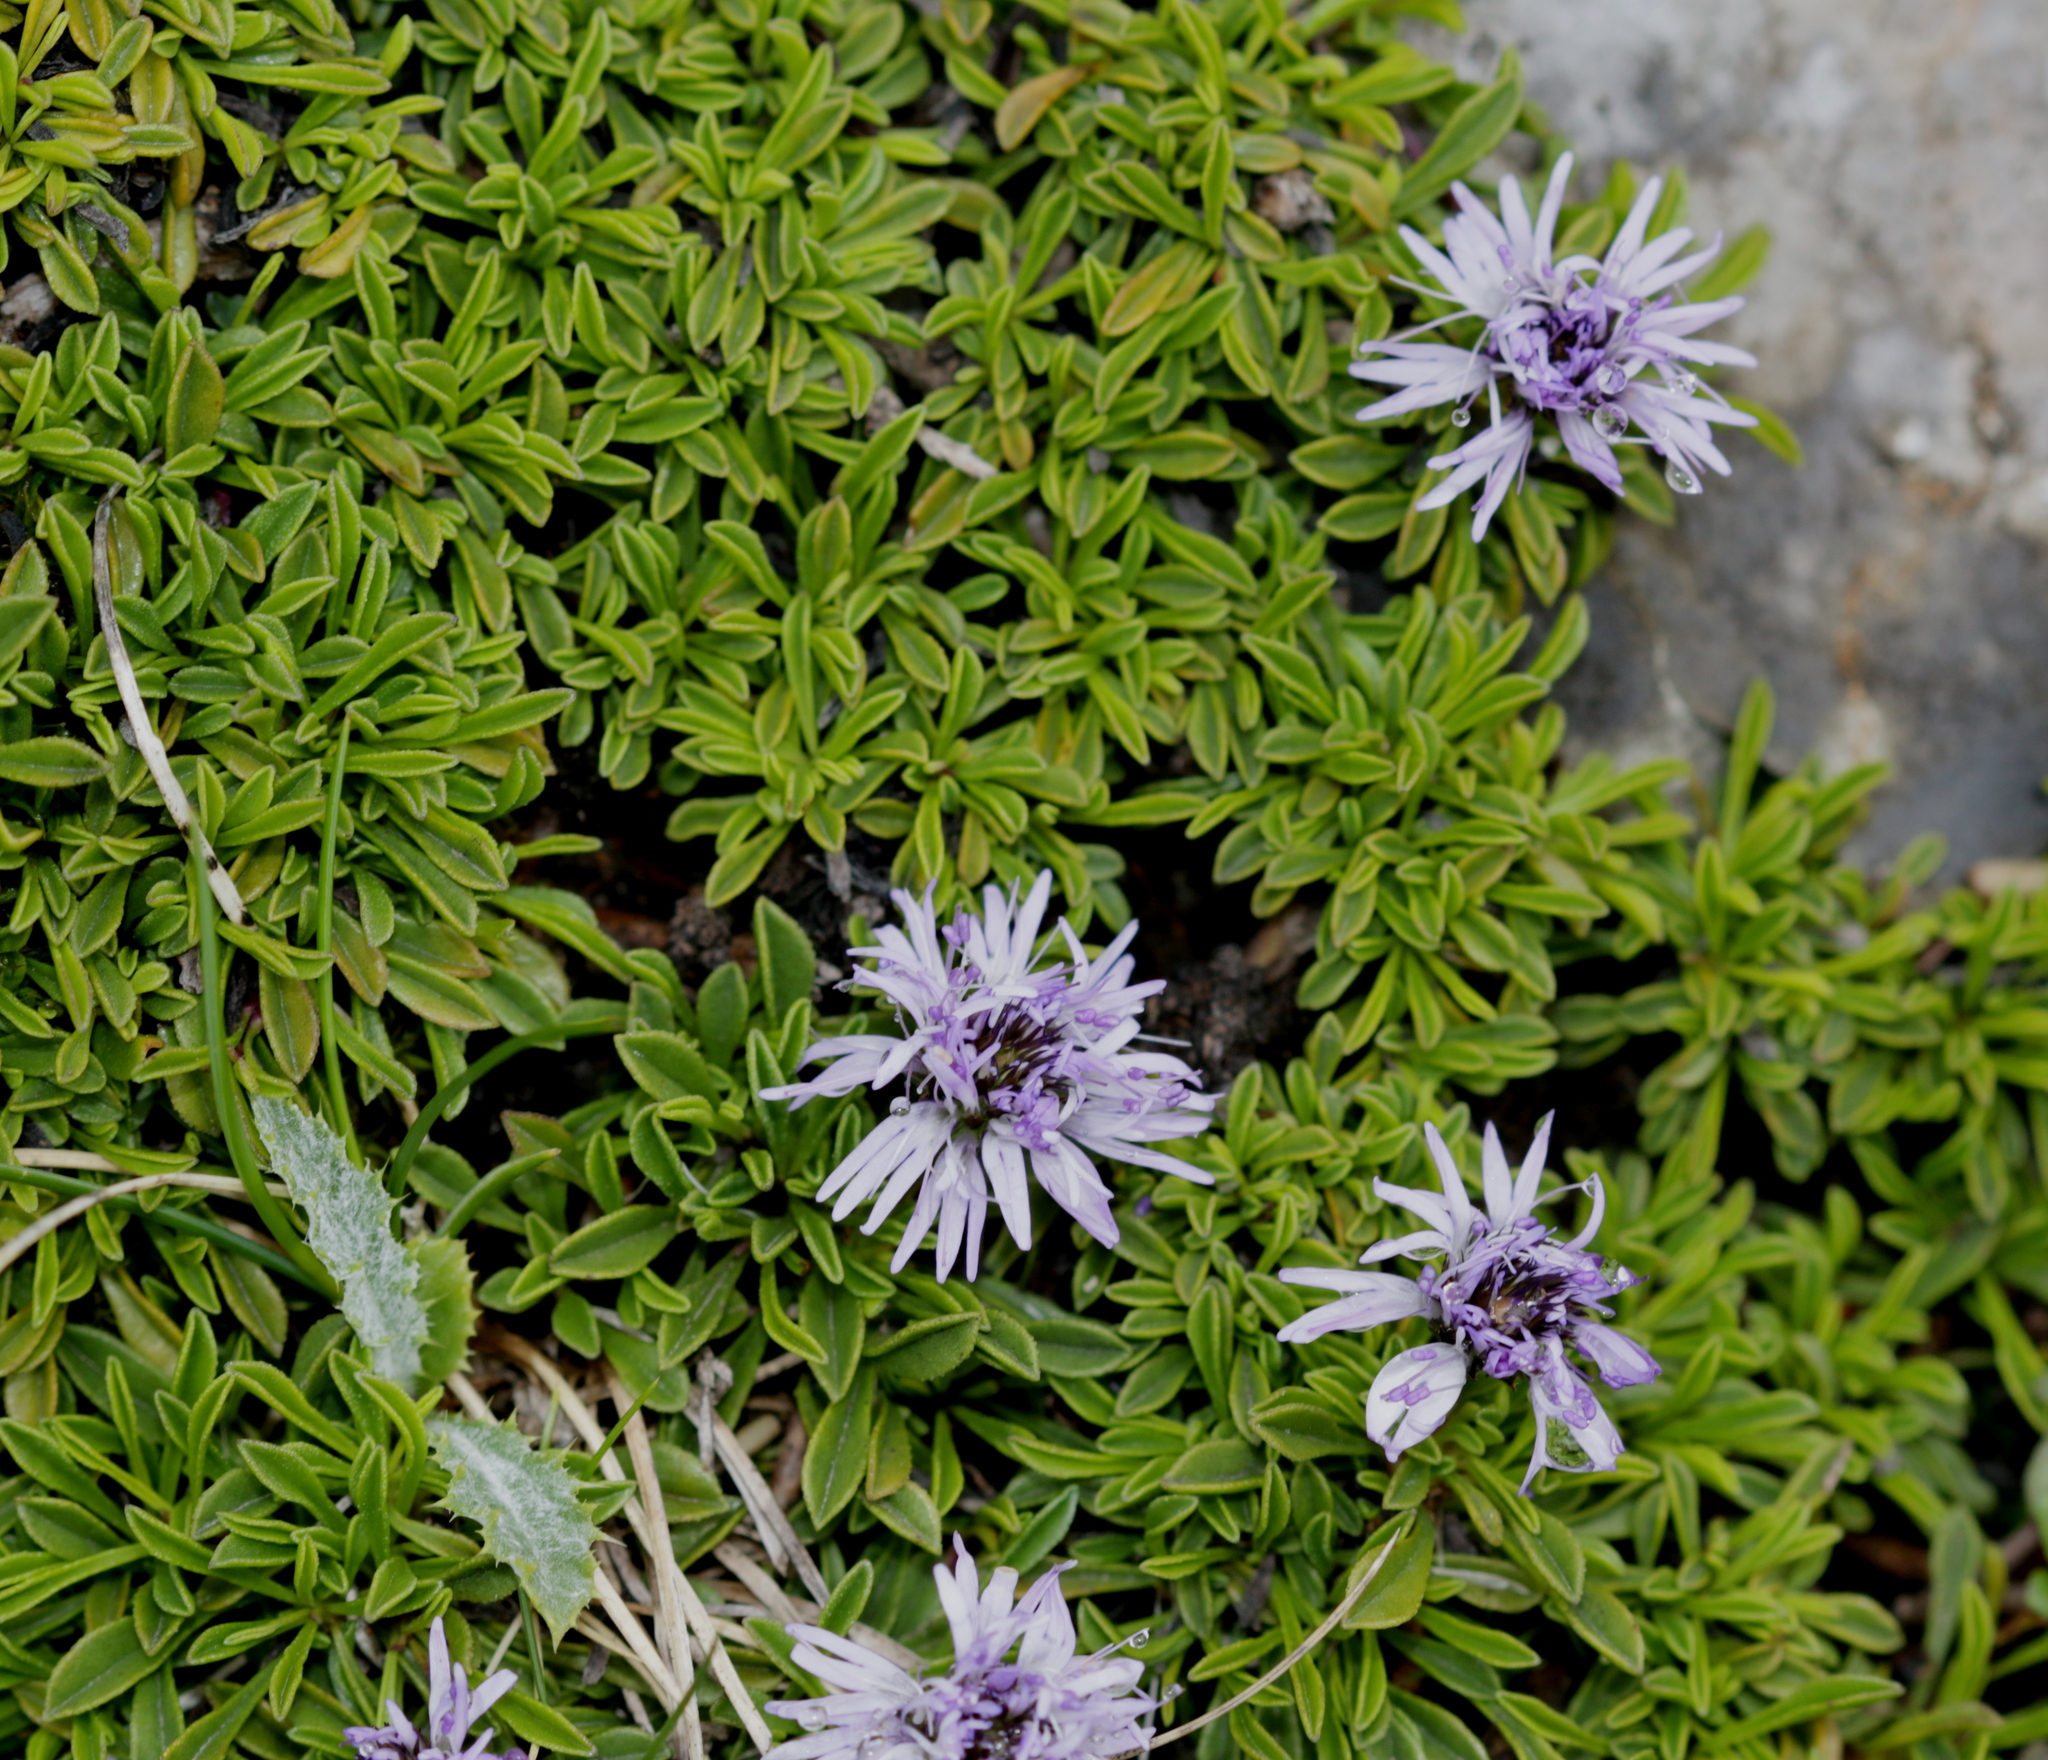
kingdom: Plantae
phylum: Tracheophyta
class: Magnoliopsida
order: Lamiales
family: Plantaginaceae
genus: Globularia
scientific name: Globularia repens
